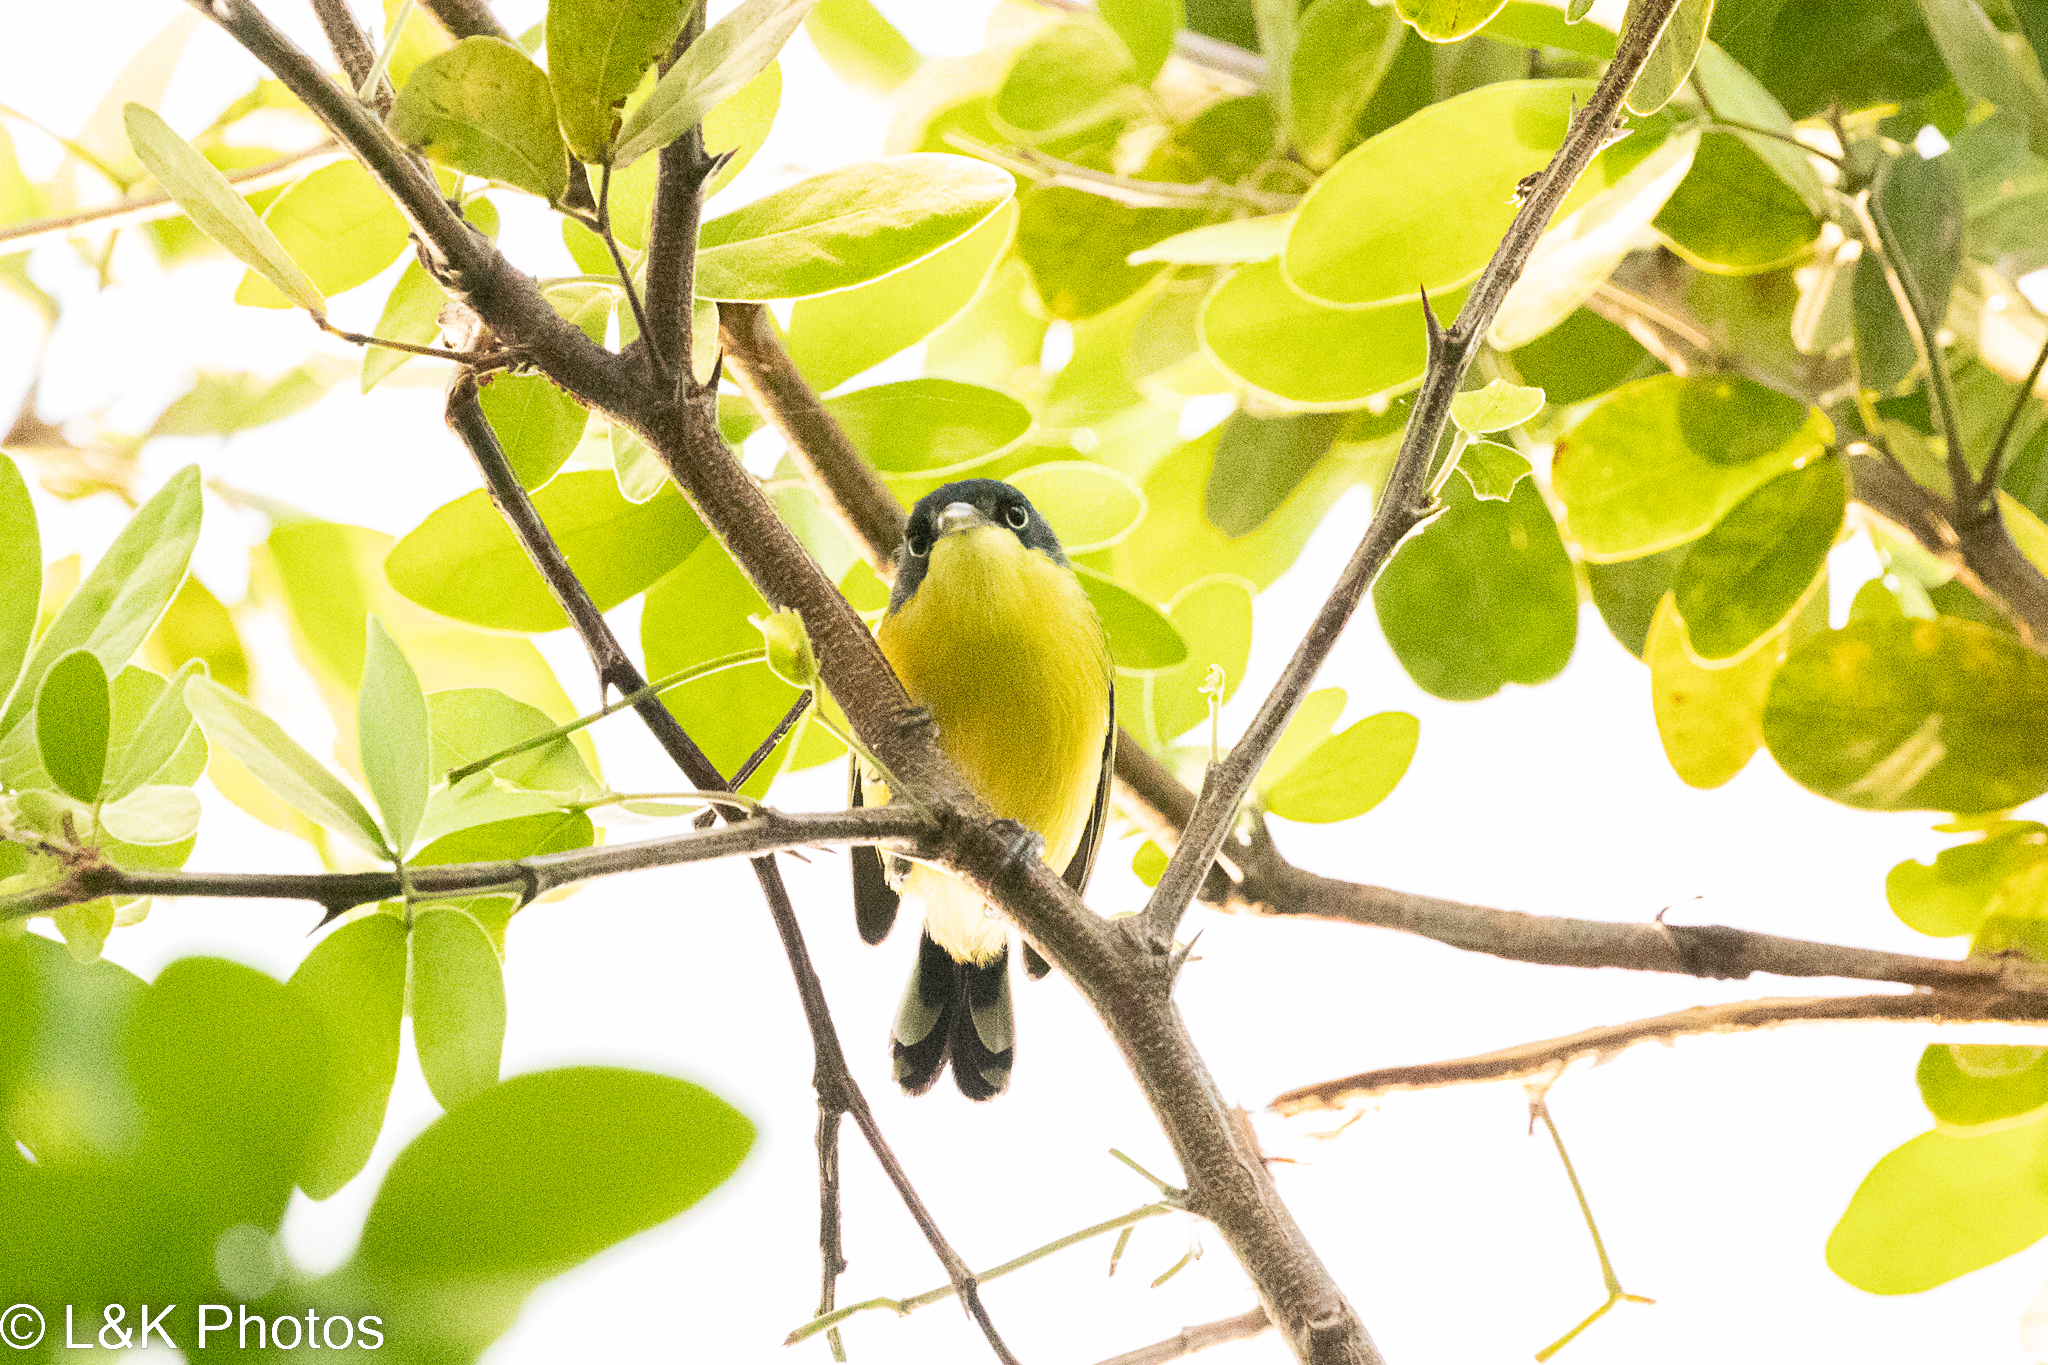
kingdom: Animalia
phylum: Chordata
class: Aves
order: Passeriformes
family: Tyrannidae
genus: Todirostrum
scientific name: Todirostrum cinereum
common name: Common tody-flycatcher
